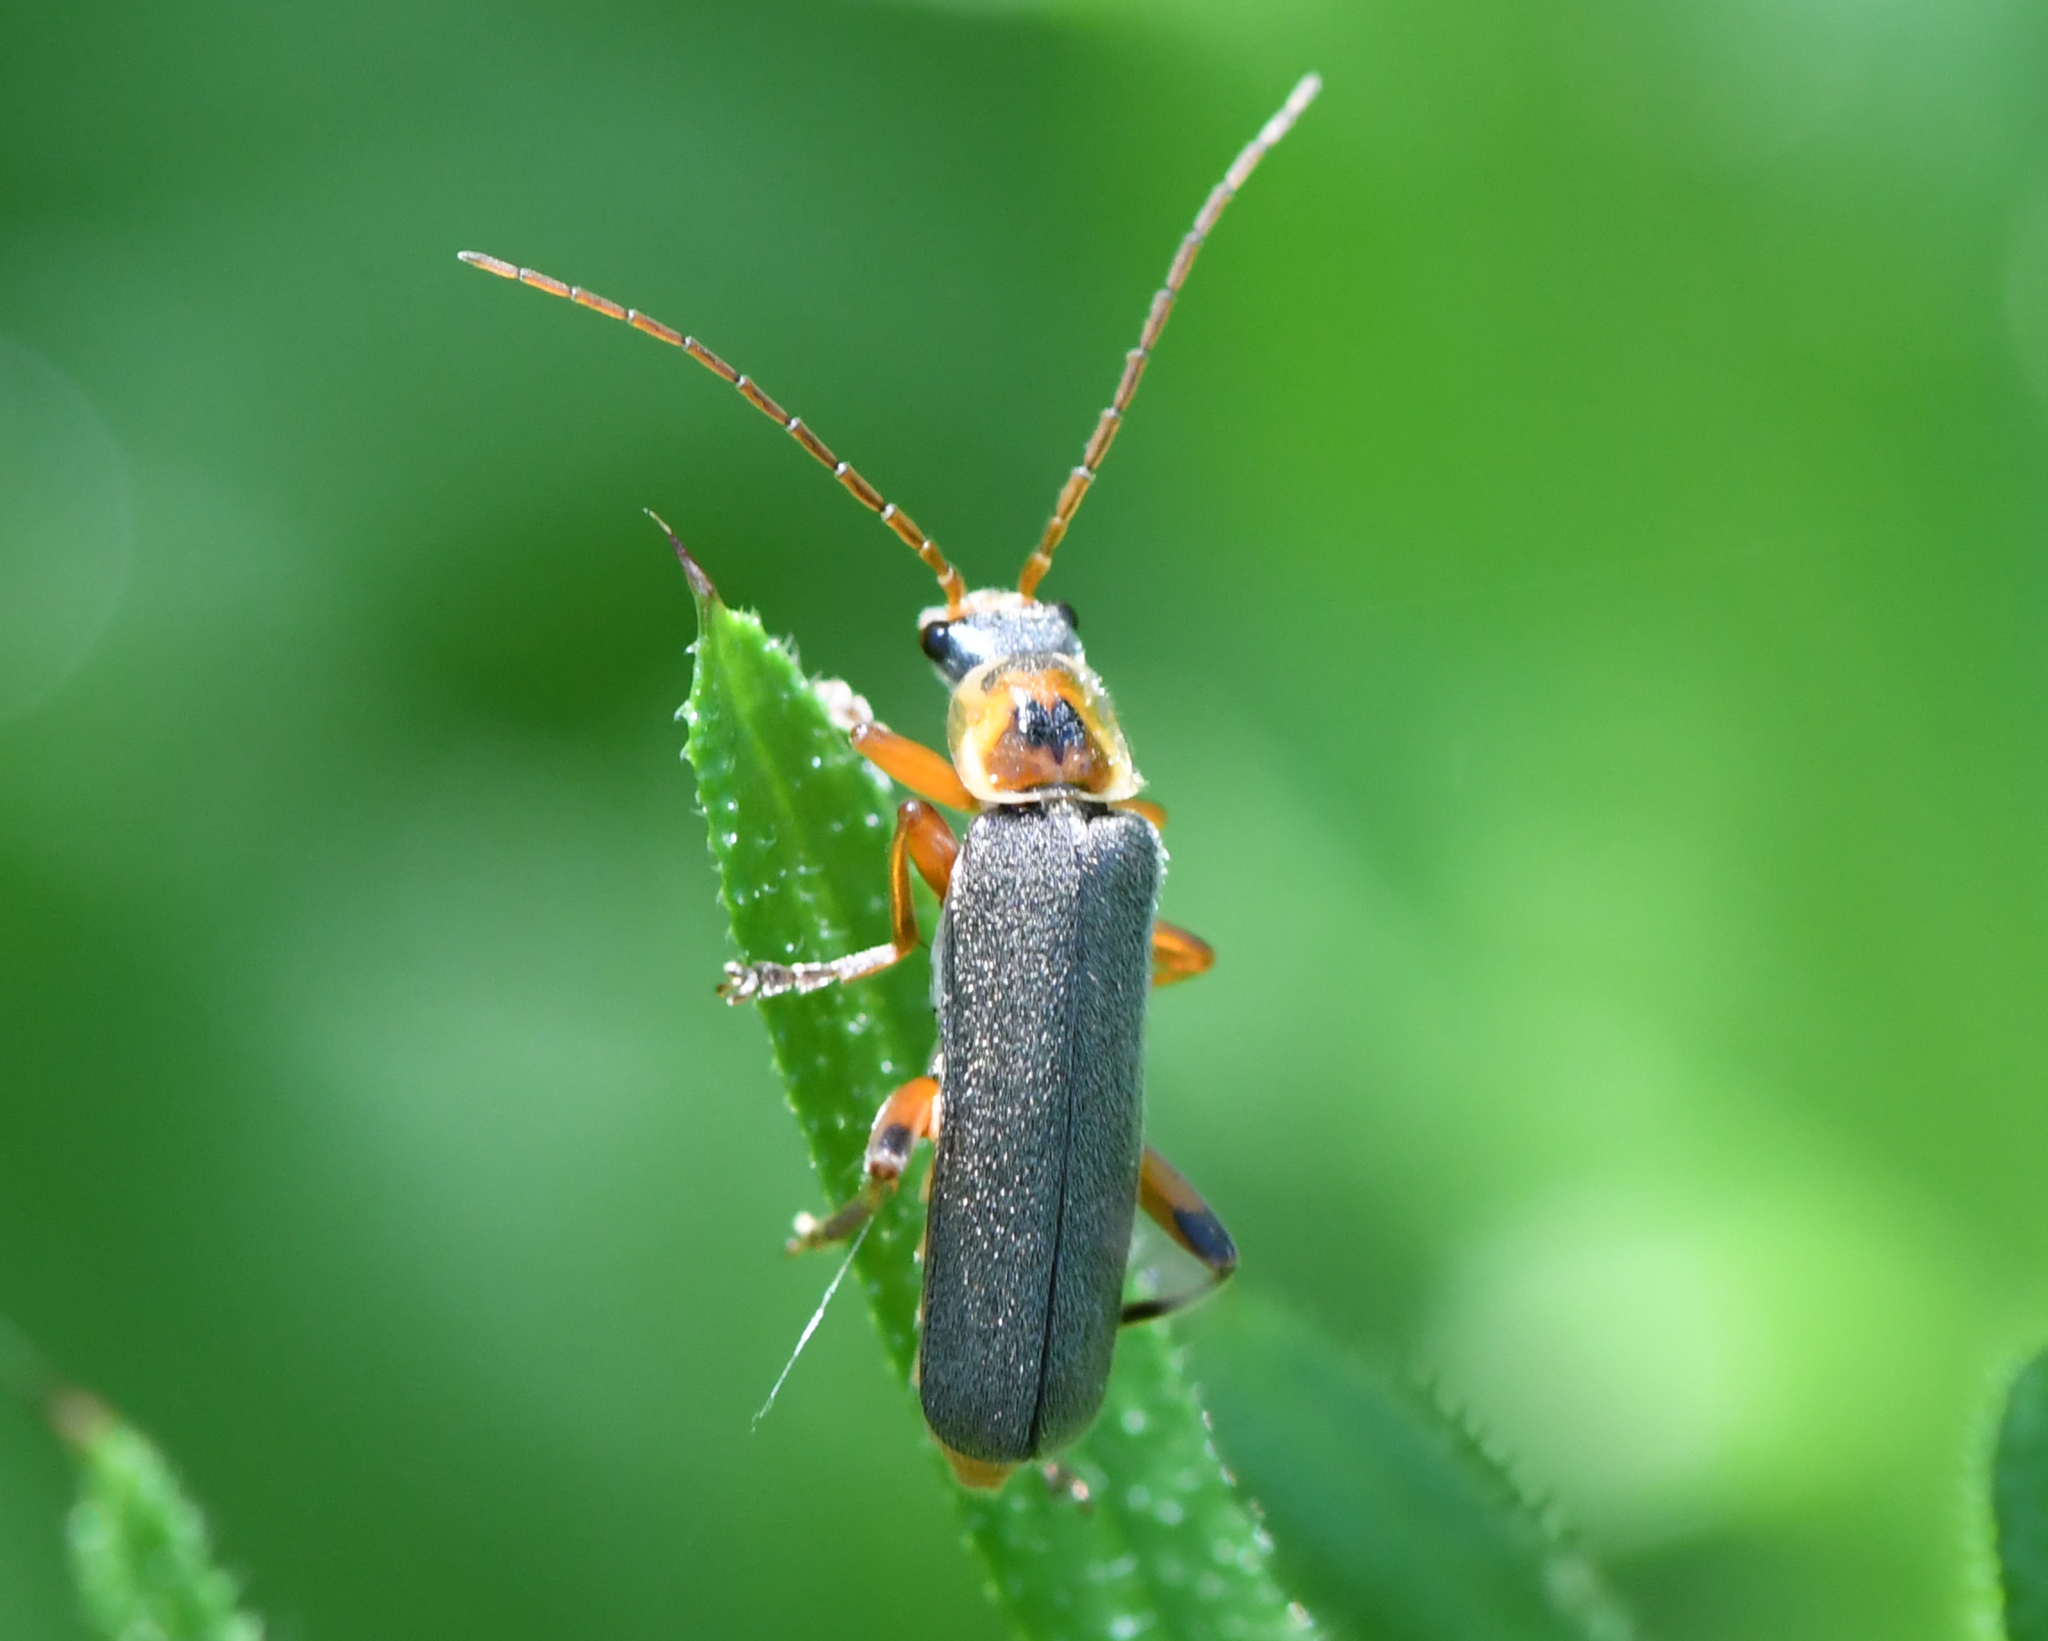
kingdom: Animalia
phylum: Arthropoda
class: Insecta
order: Coleoptera
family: Cantharidae
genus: Cantharis
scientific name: Cantharis nigricans
